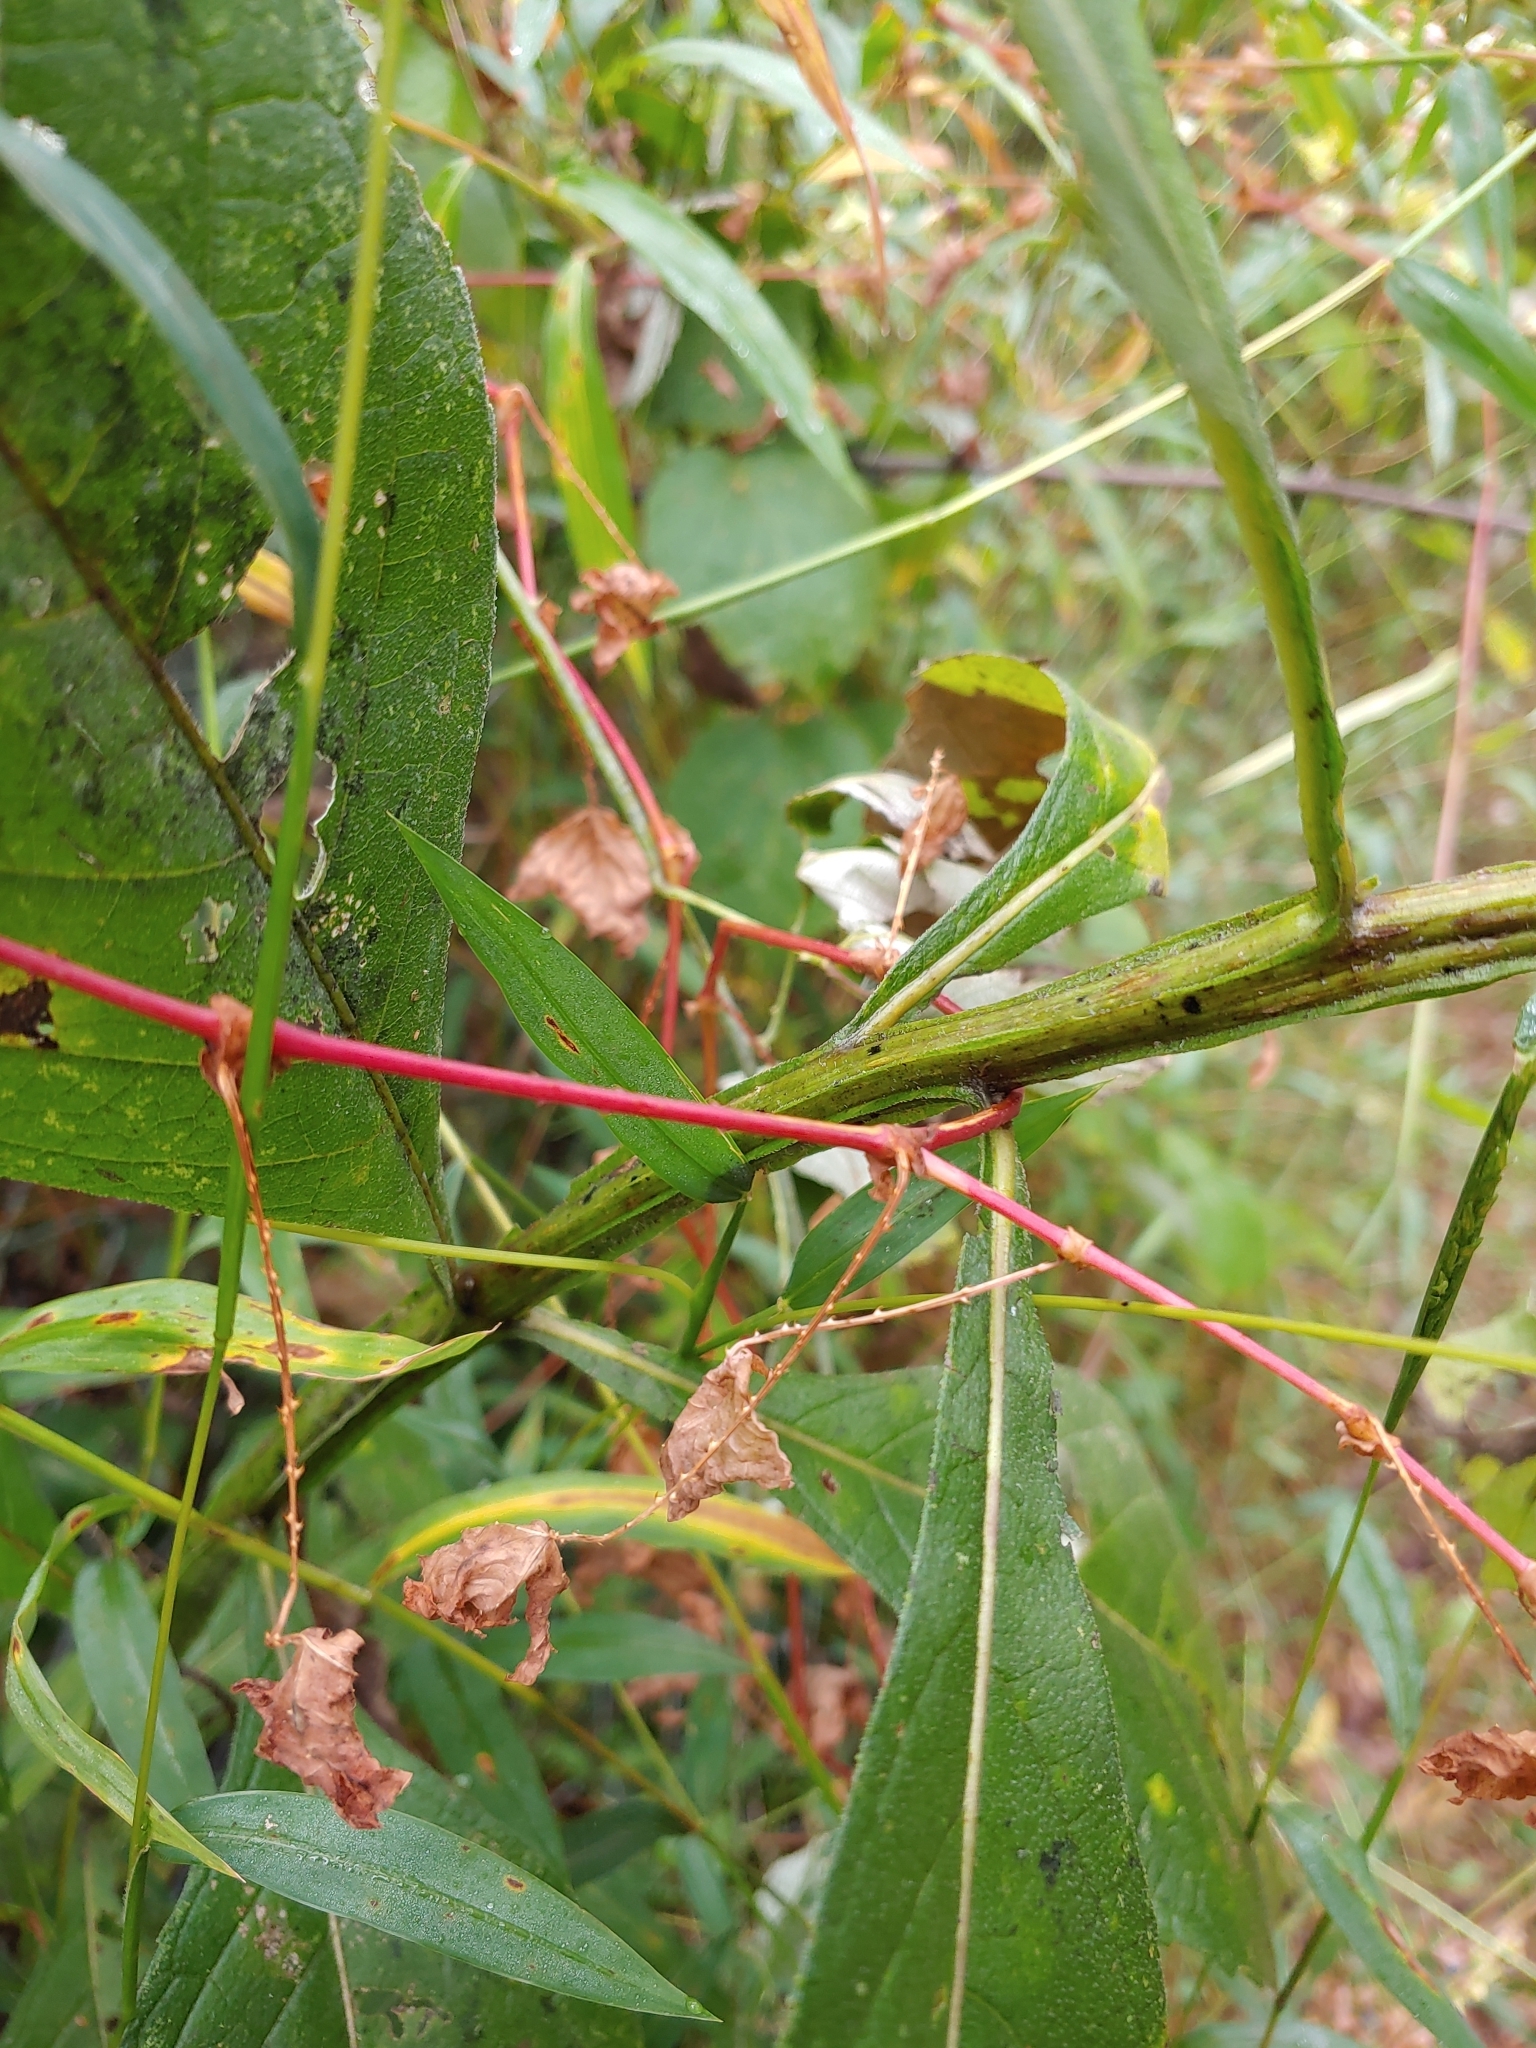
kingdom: Plantae
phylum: Tracheophyta
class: Magnoliopsida
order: Asterales
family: Asteraceae
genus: Verbesina
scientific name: Verbesina alternifolia
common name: Wingstem
